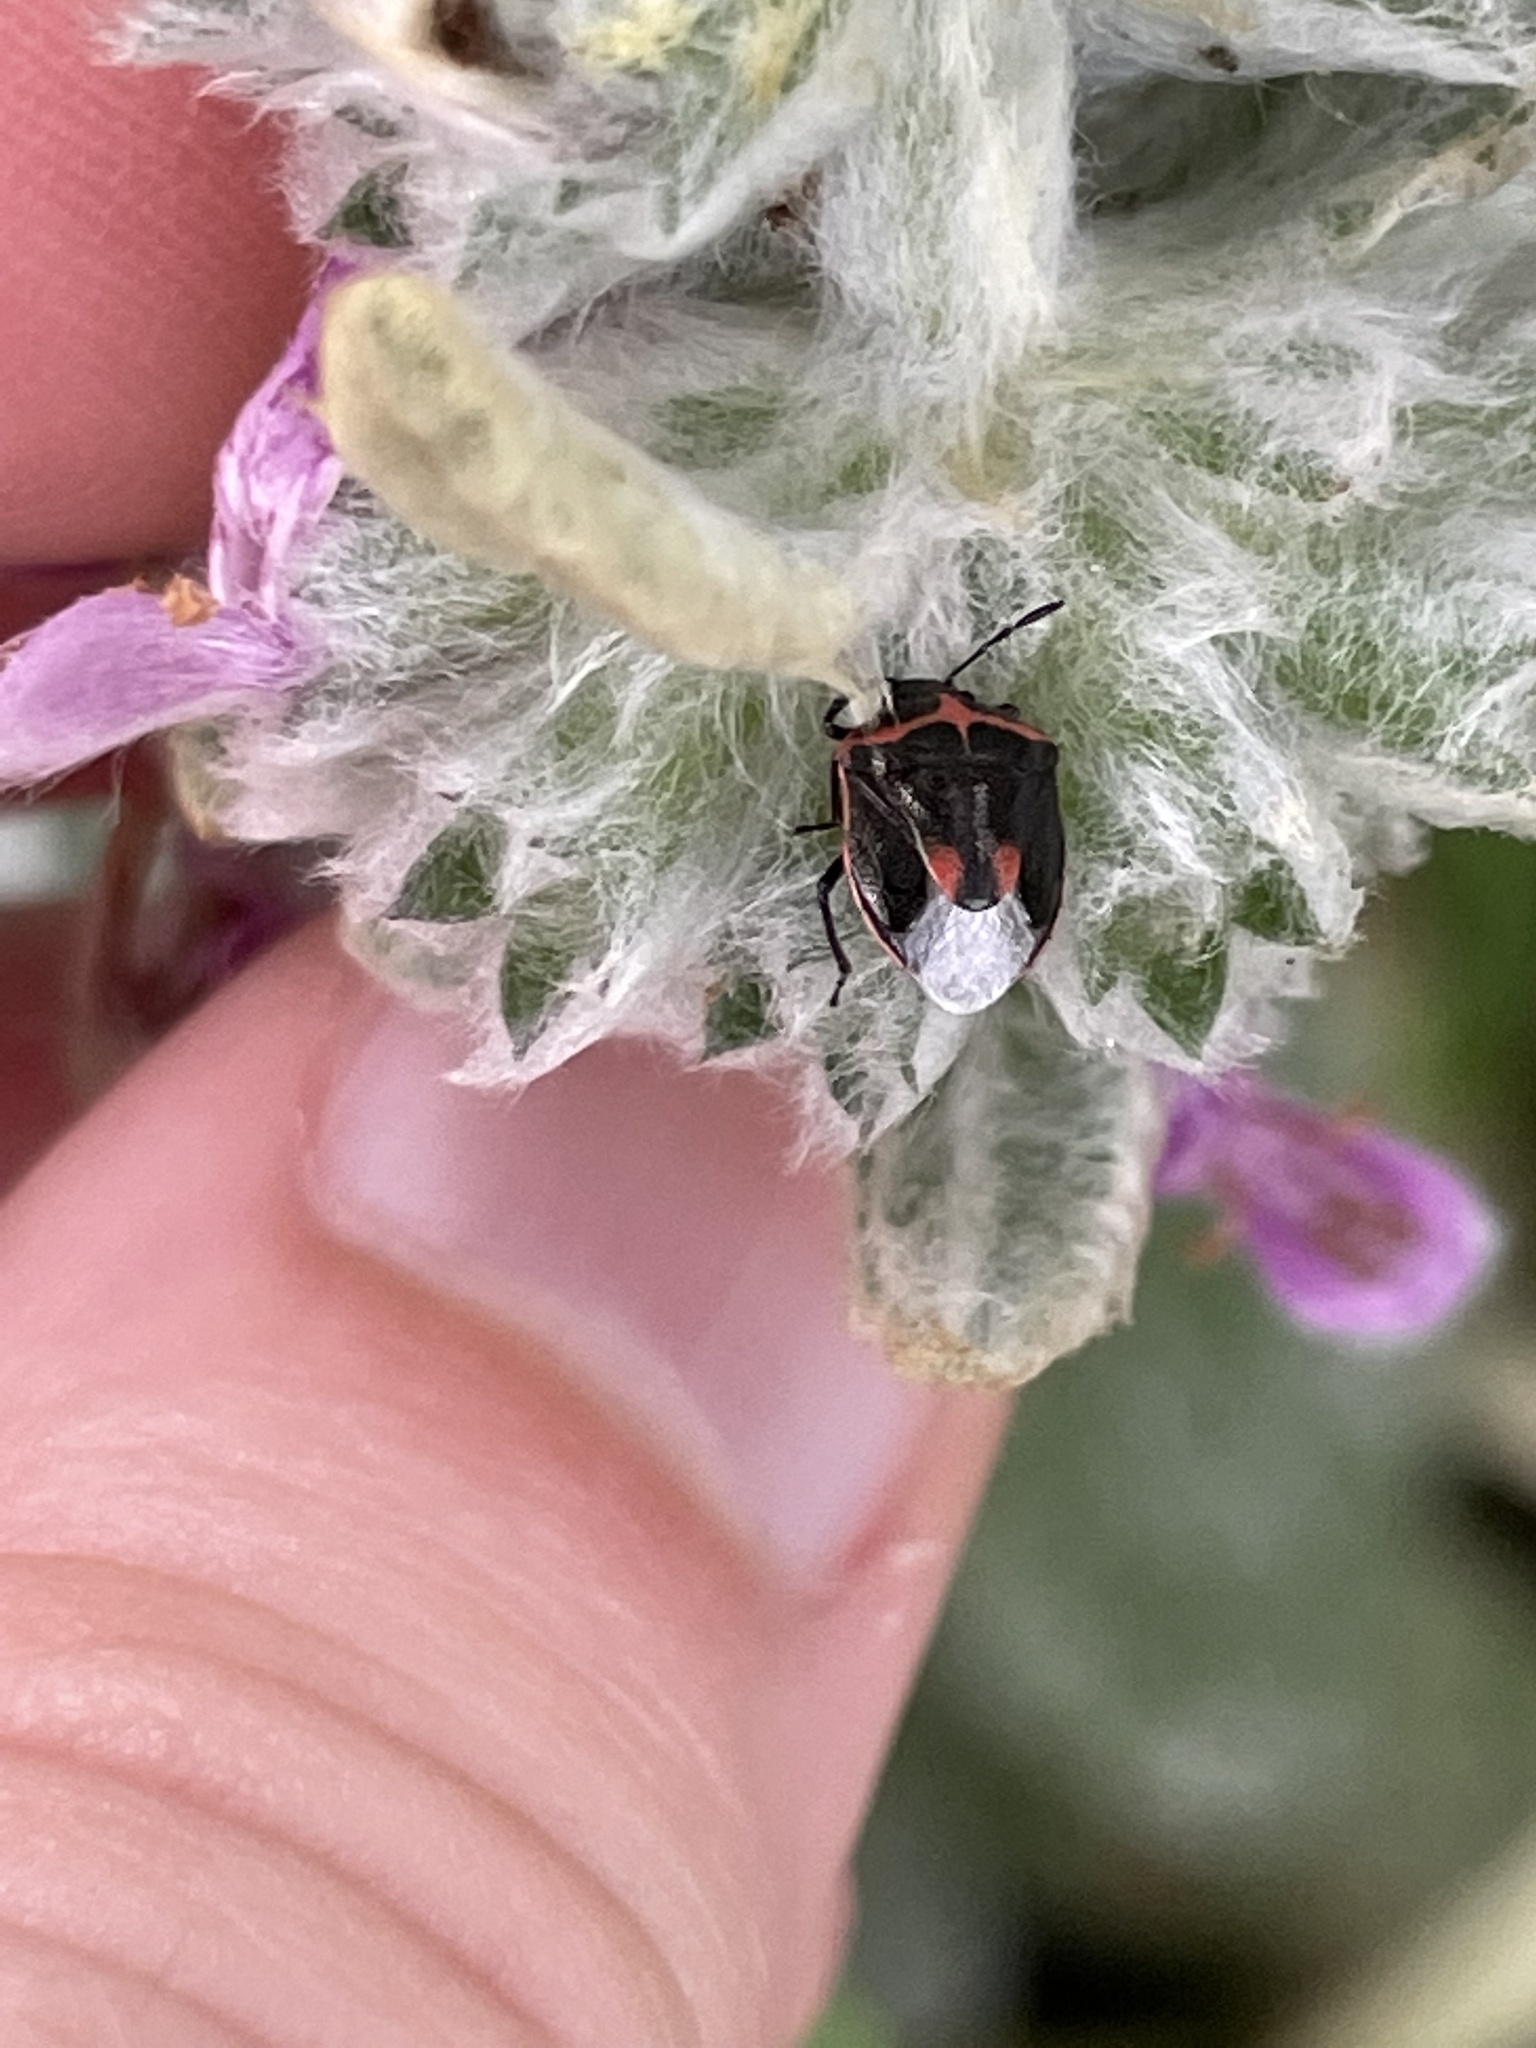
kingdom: Animalia
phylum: Arthropoda
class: Insecta
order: Hemiptera
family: Pentatomidae
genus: Cosmopepla
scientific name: Cosmopepla lintneriana
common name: Twice-stabbed stink bug
